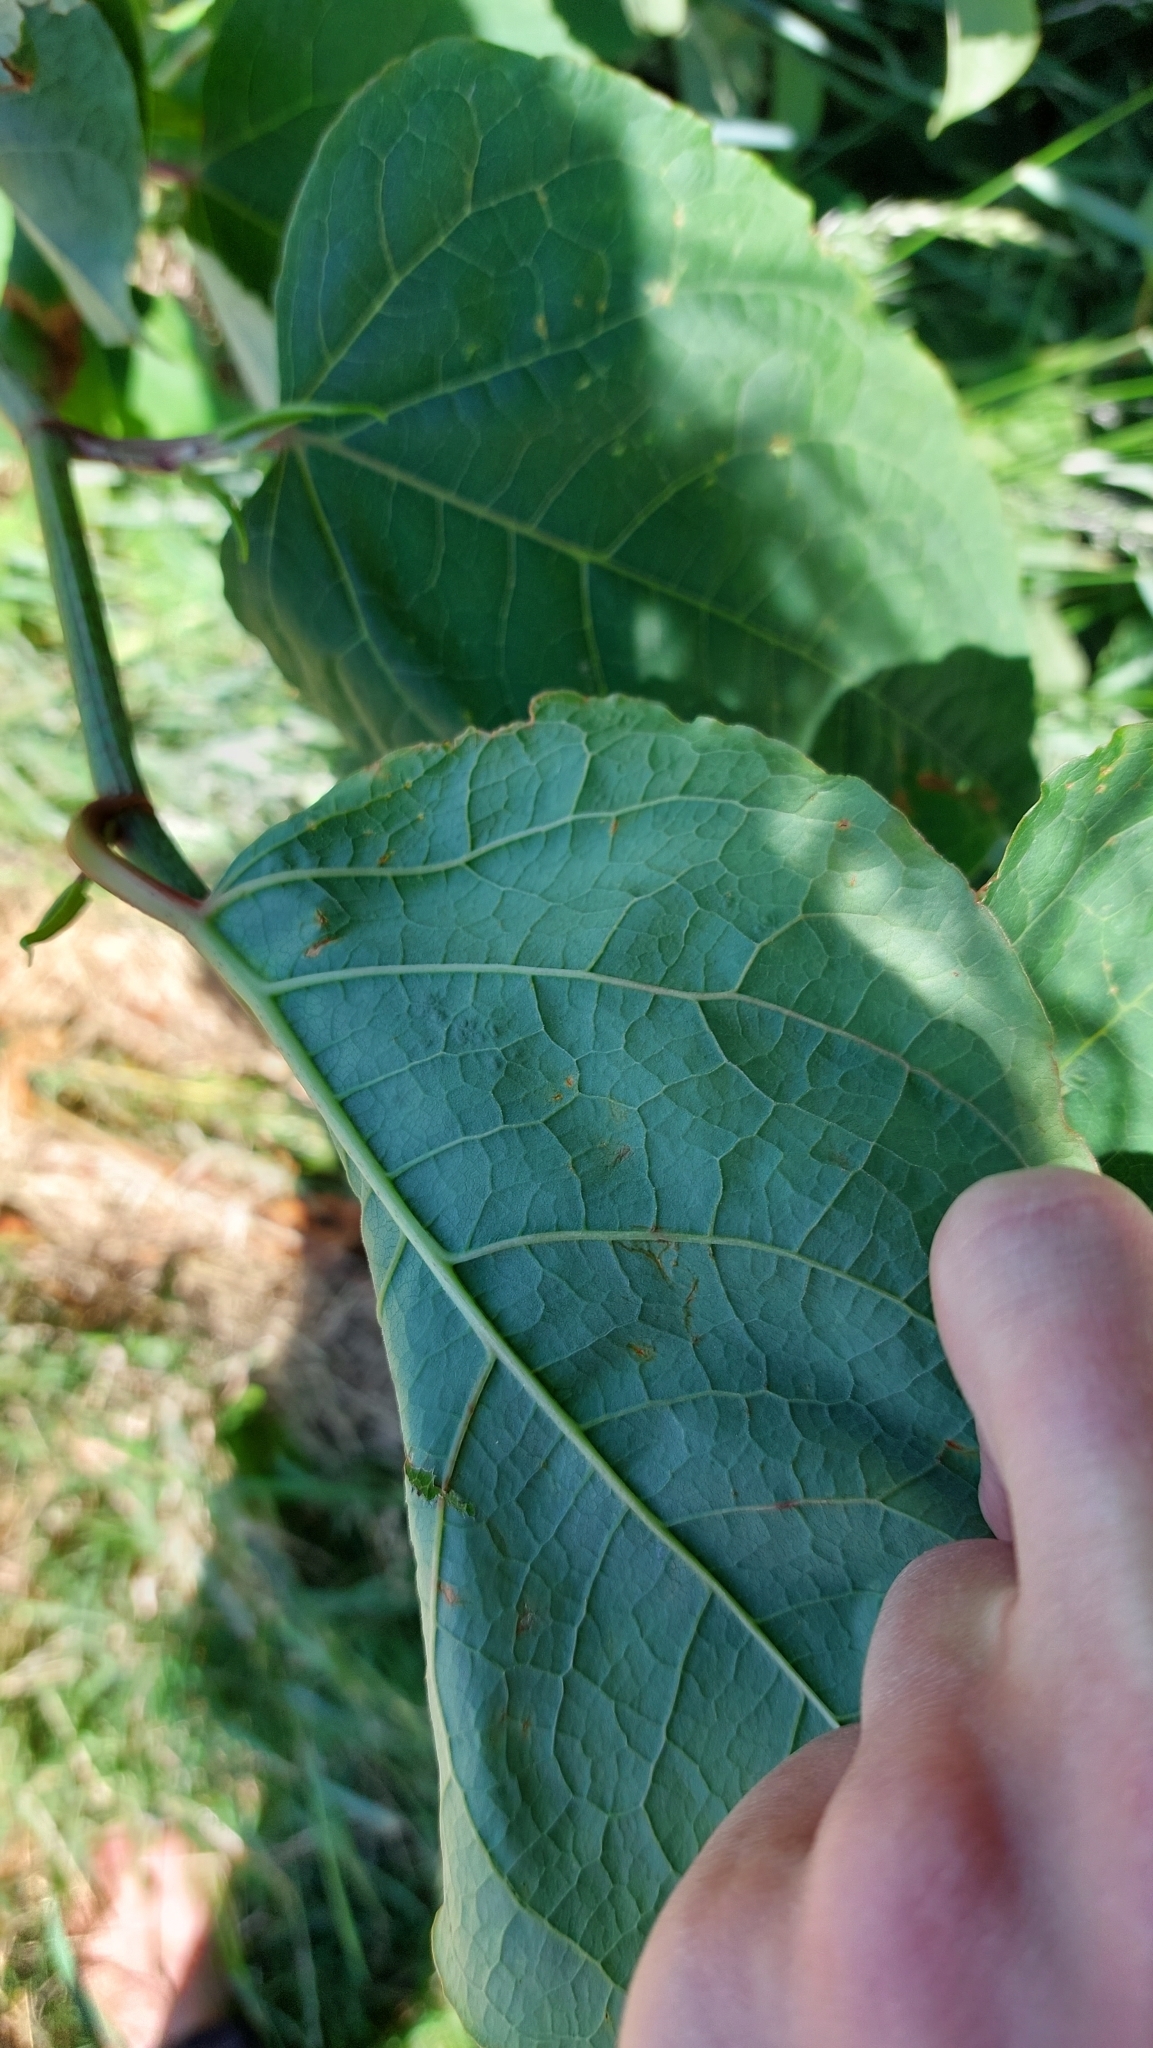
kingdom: Plantae
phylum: Tracheophyta
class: Magnoliopsida
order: Caryophyllales
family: Polygonaceae
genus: Reynoutria
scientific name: Reynoutria bohemica
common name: Bohemian knotweed
